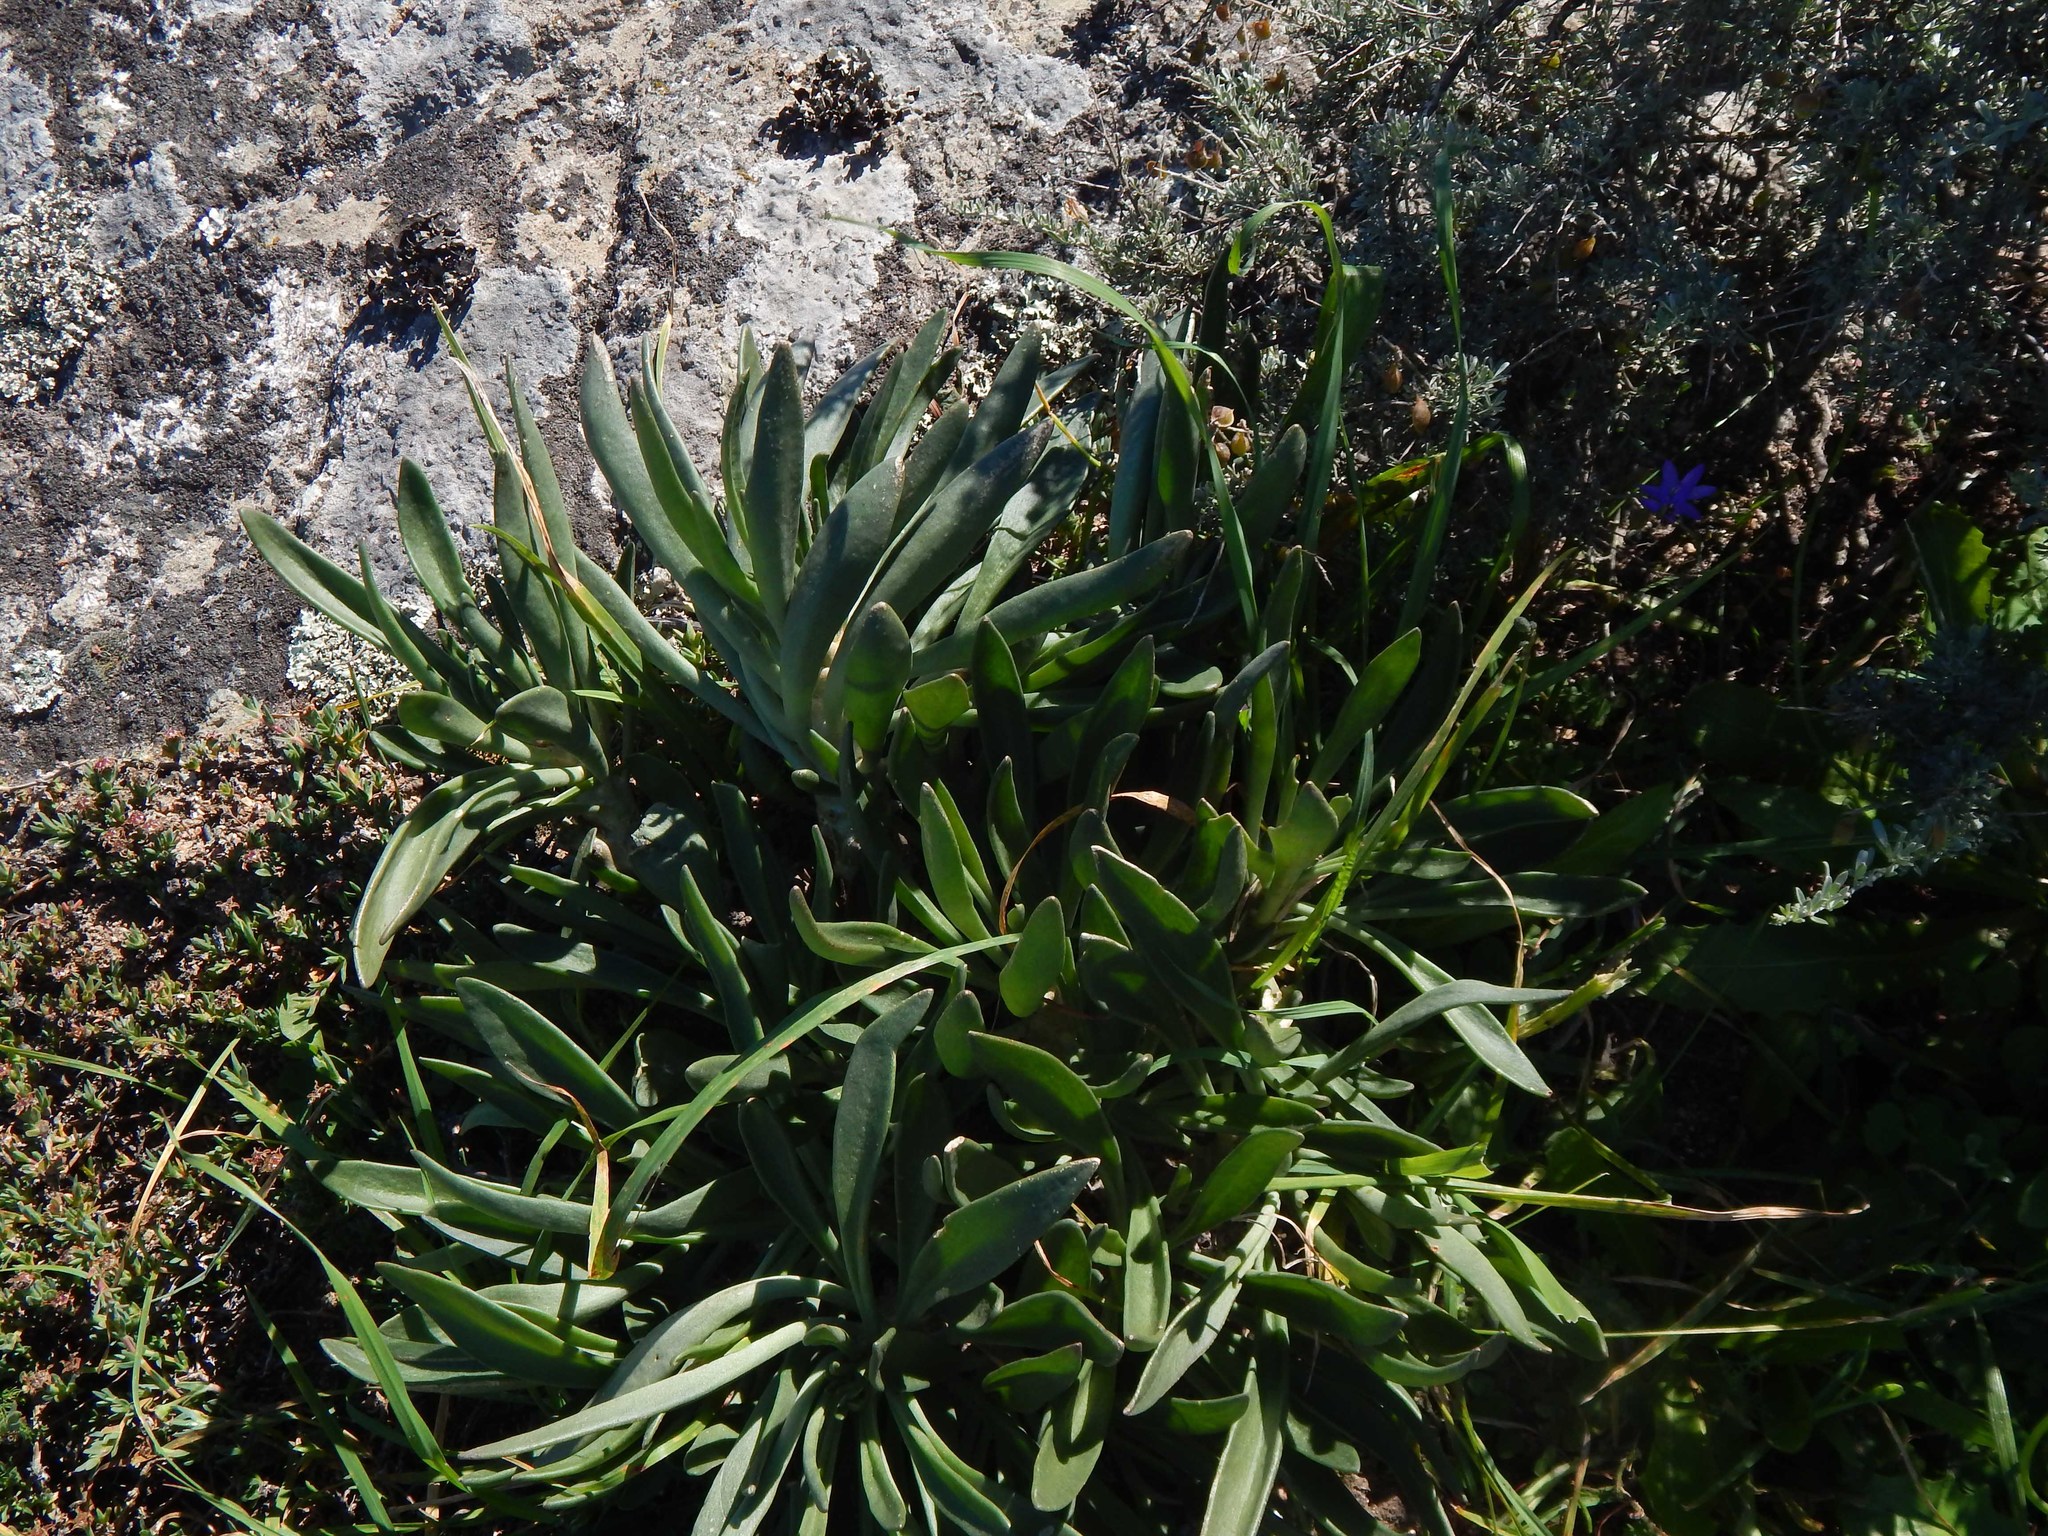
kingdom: Plantae
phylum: Tracheophyta
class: Magnoliopsida
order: Saxifragales
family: Crassulaceae
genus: Tylecodon
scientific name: Tylecodon grandiflorus
